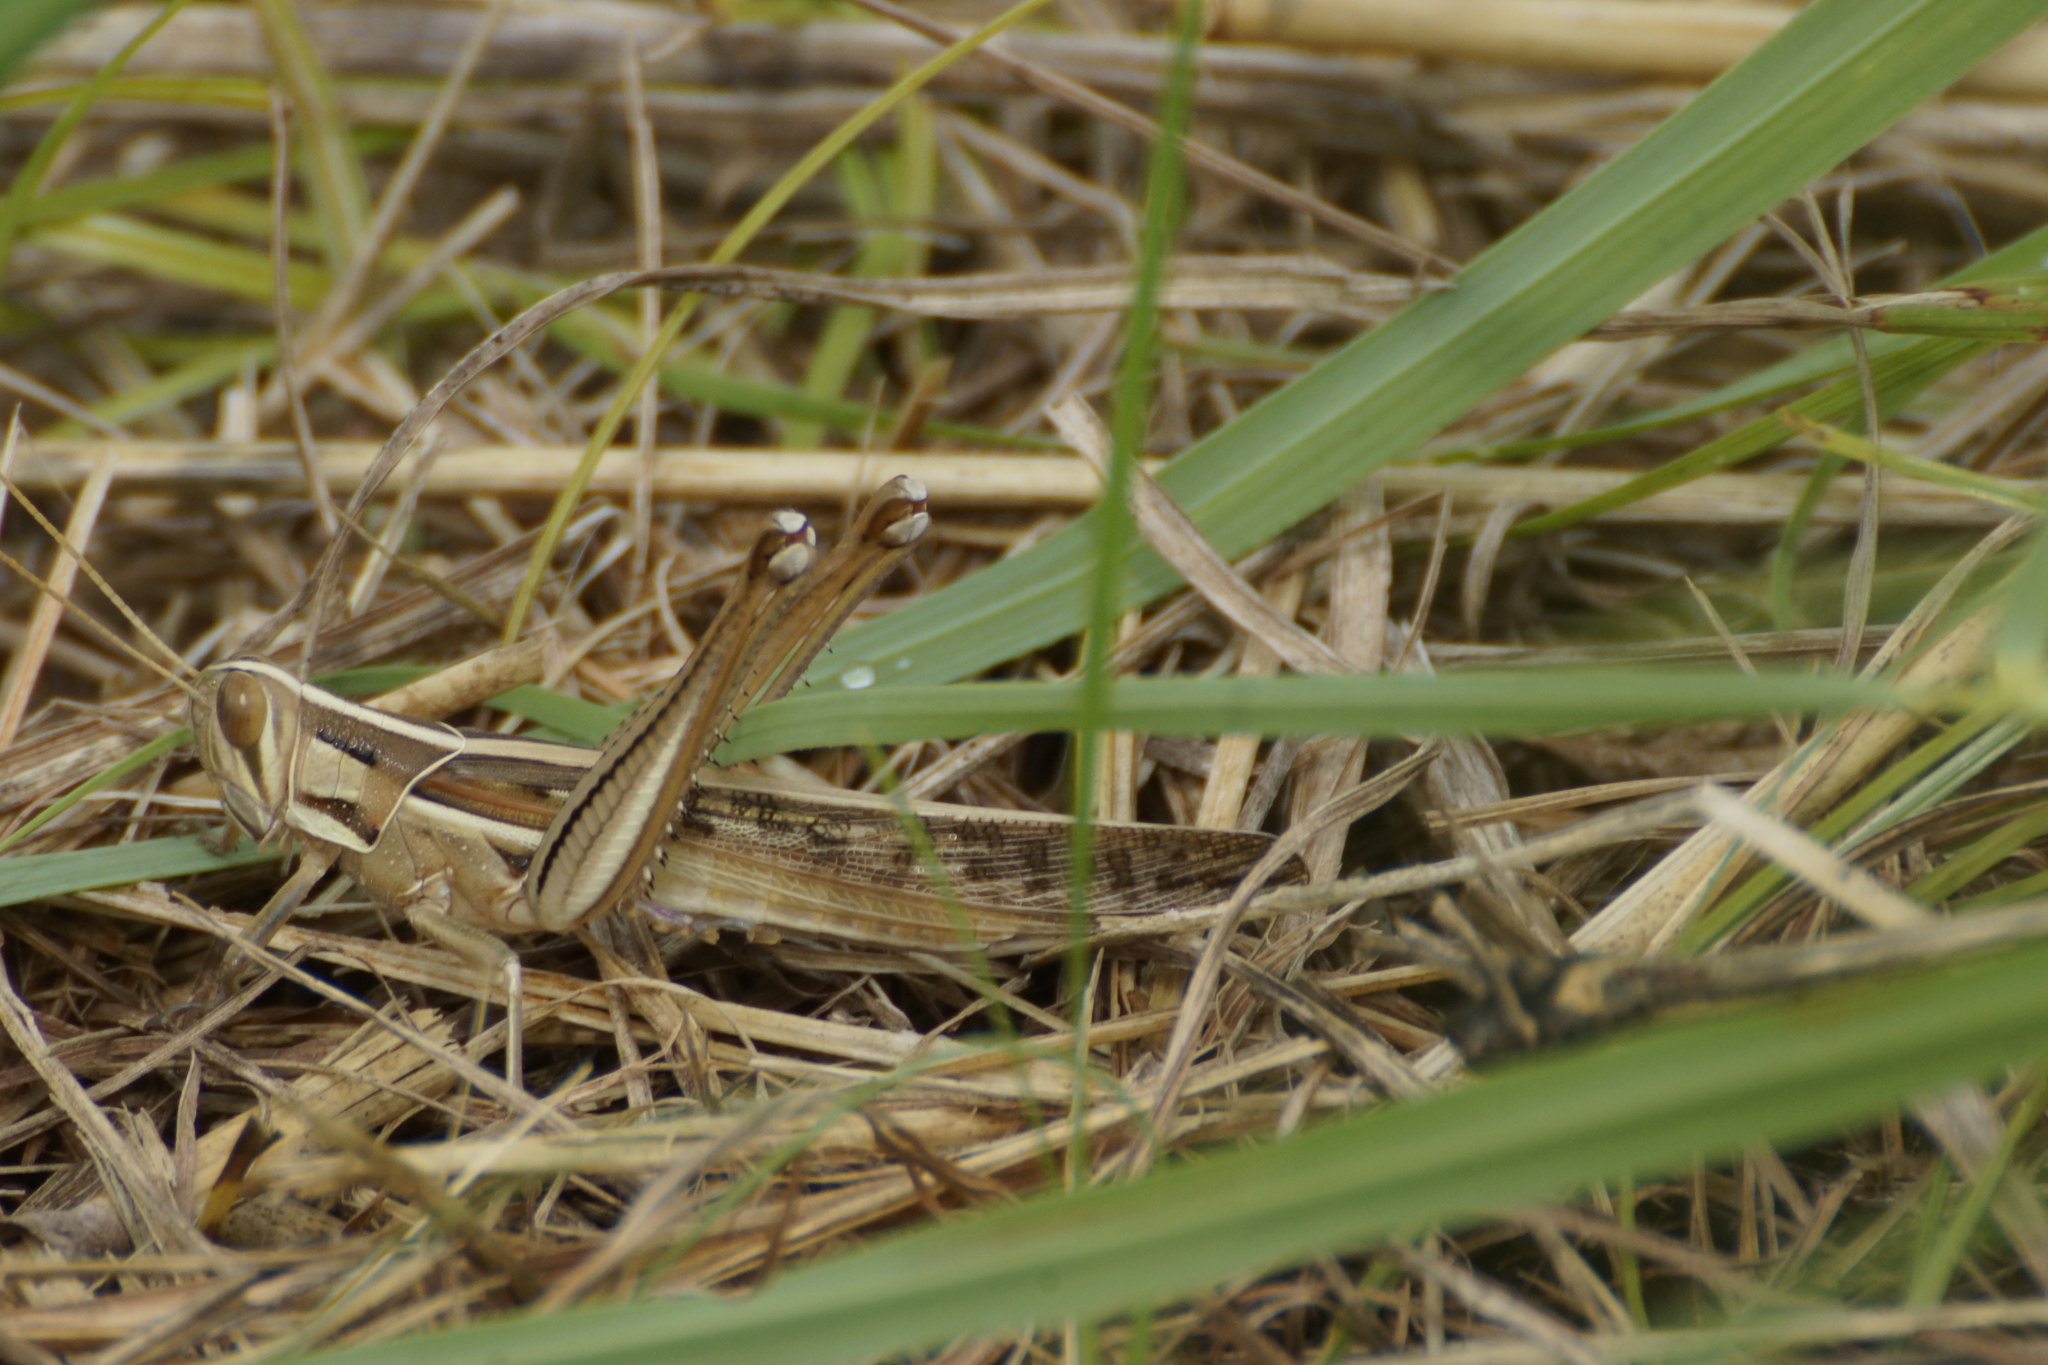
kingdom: Animalia
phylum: Arthropoda
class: Insecta
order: Orthoptera
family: Acrididae
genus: Austracris
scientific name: Austracris guttulosa
